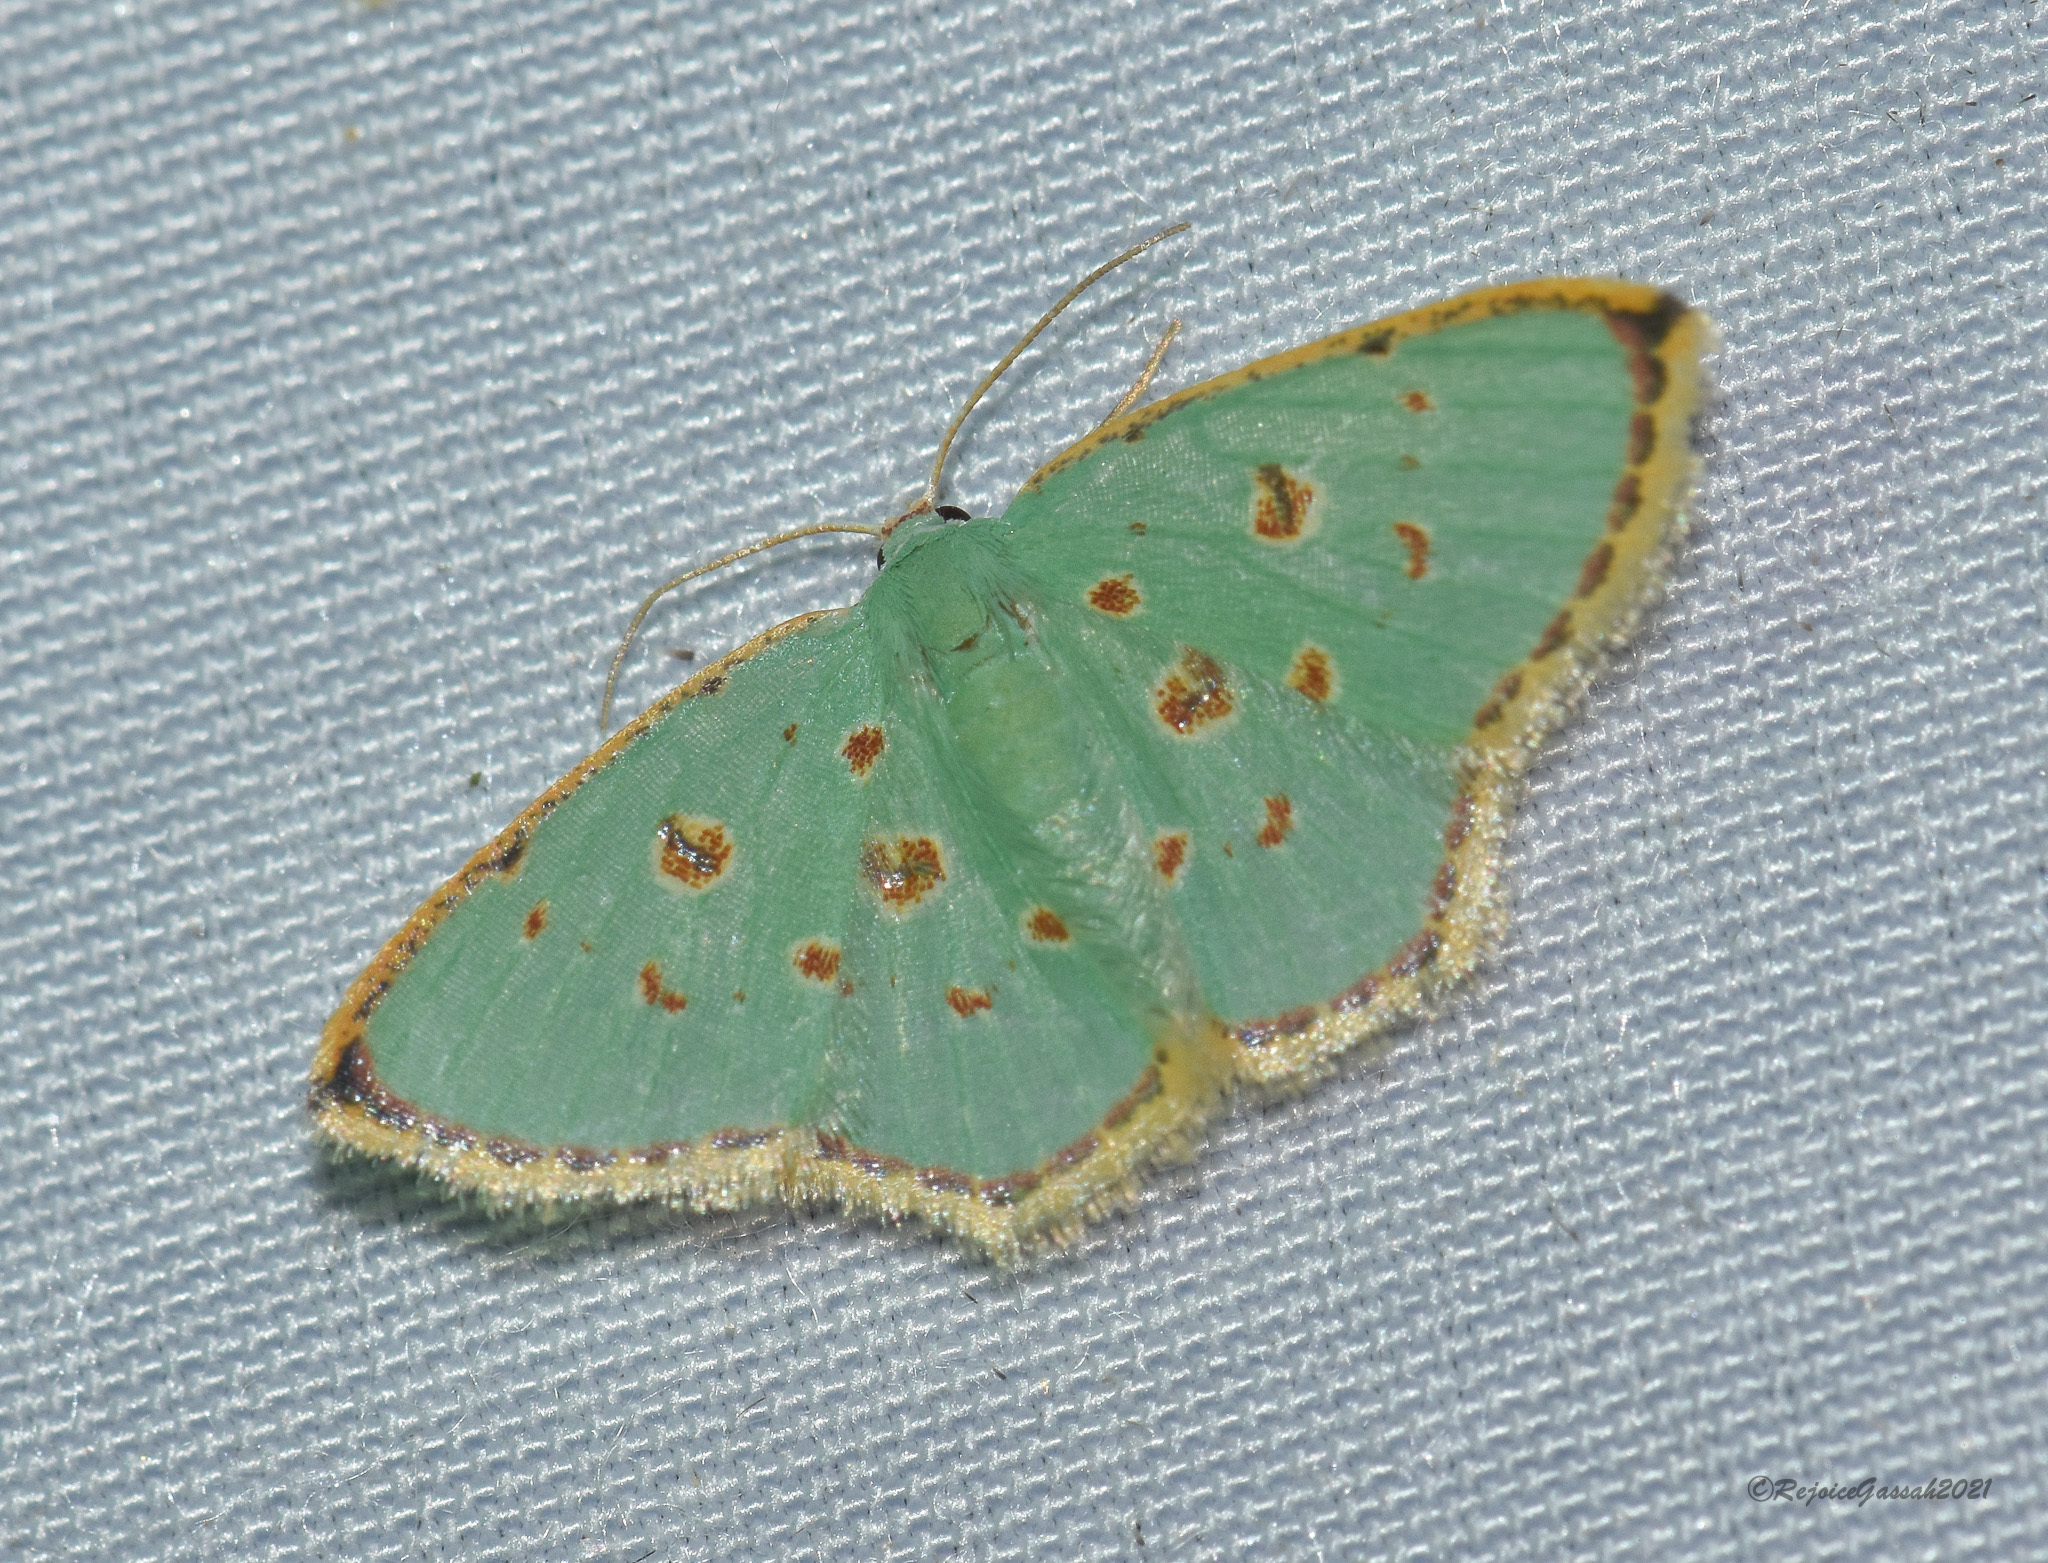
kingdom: Animalia
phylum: Arthropoda
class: Insecta
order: Lepidoptera
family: Geometridae
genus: Comostola
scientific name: Comostola laesaria
